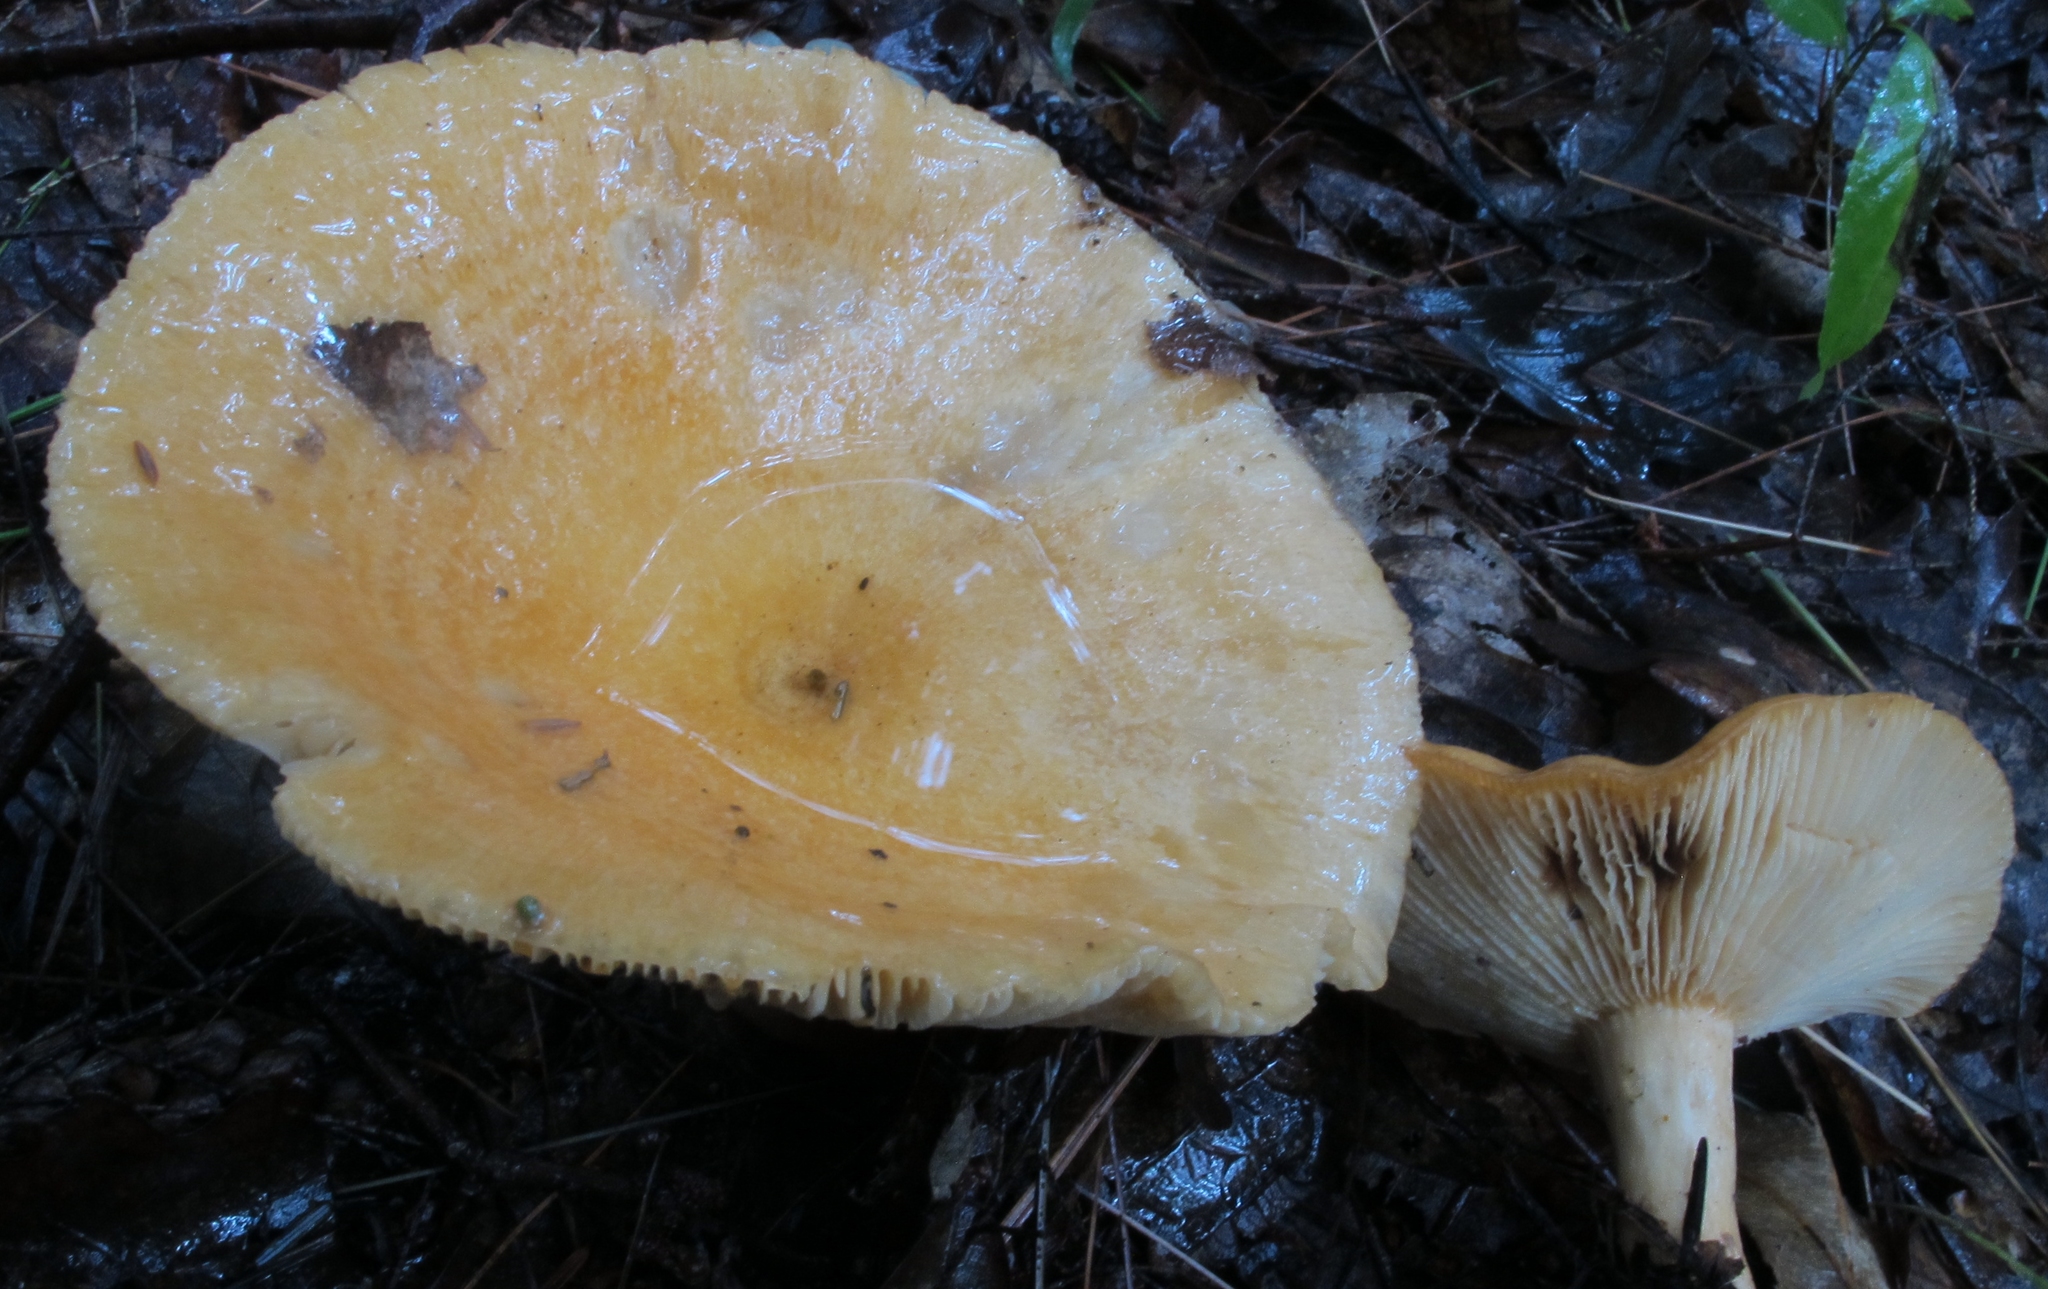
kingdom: Fungi
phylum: Basidiomycota
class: Agaricomycetes
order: Russulales
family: Russulaceae
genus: Lactarius
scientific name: Lactarius croceus
